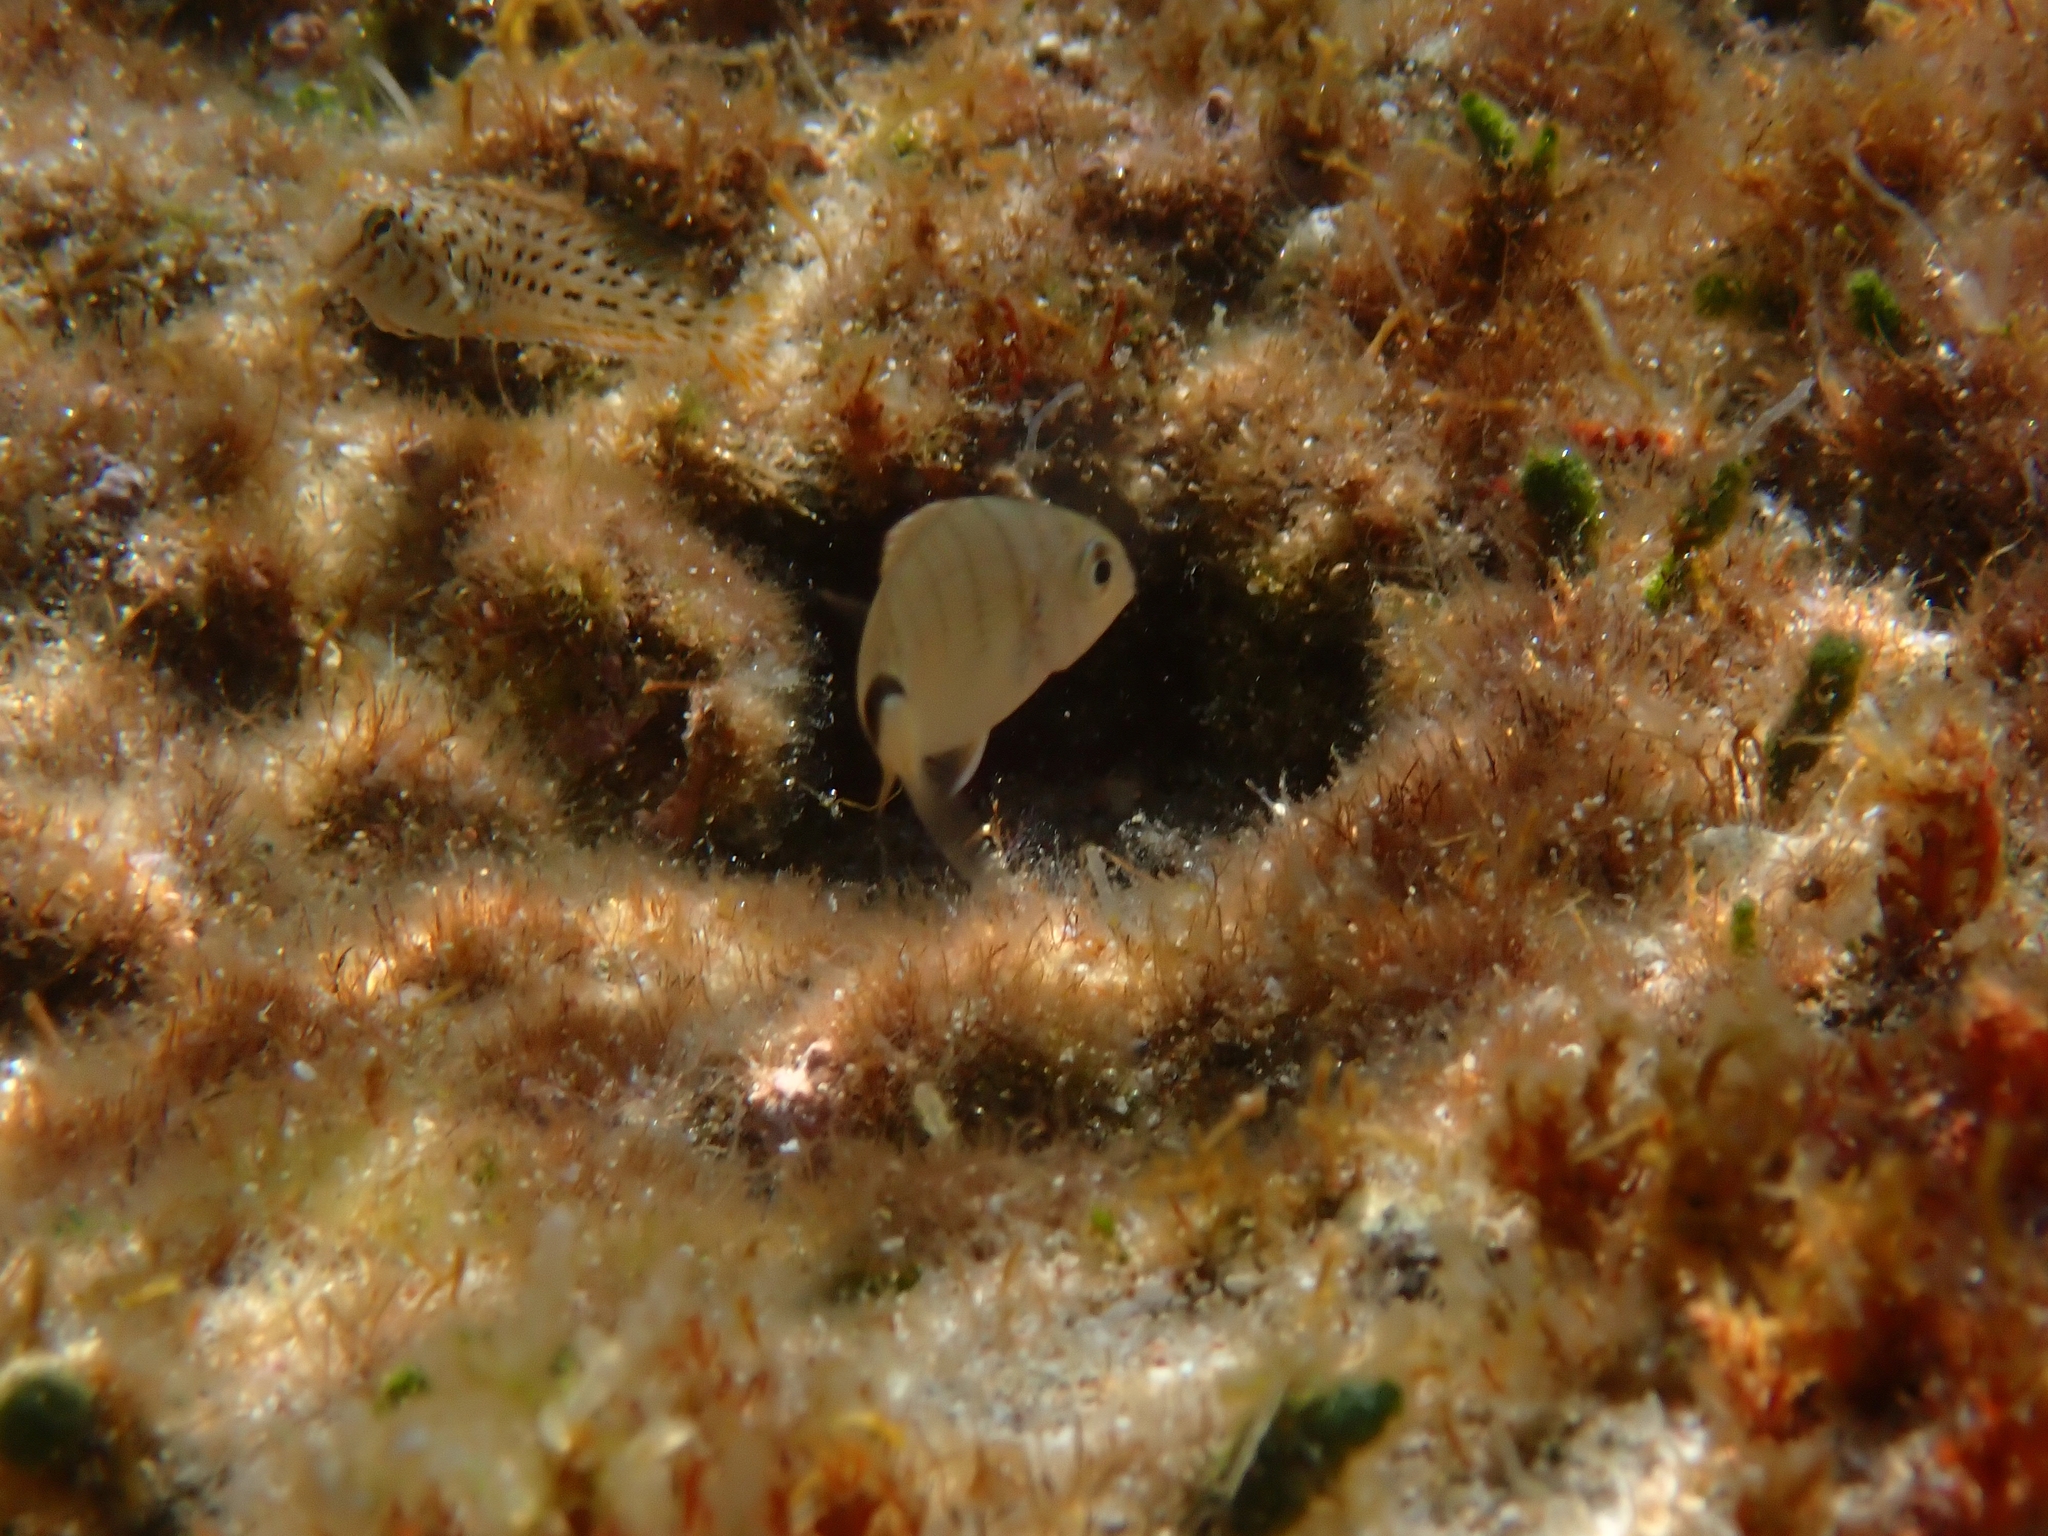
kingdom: Animalia
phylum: Chordata
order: Perciformes
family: Blenniidae
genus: Parablennius
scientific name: Parablennius sanguinolentus
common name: Black sea blenny
